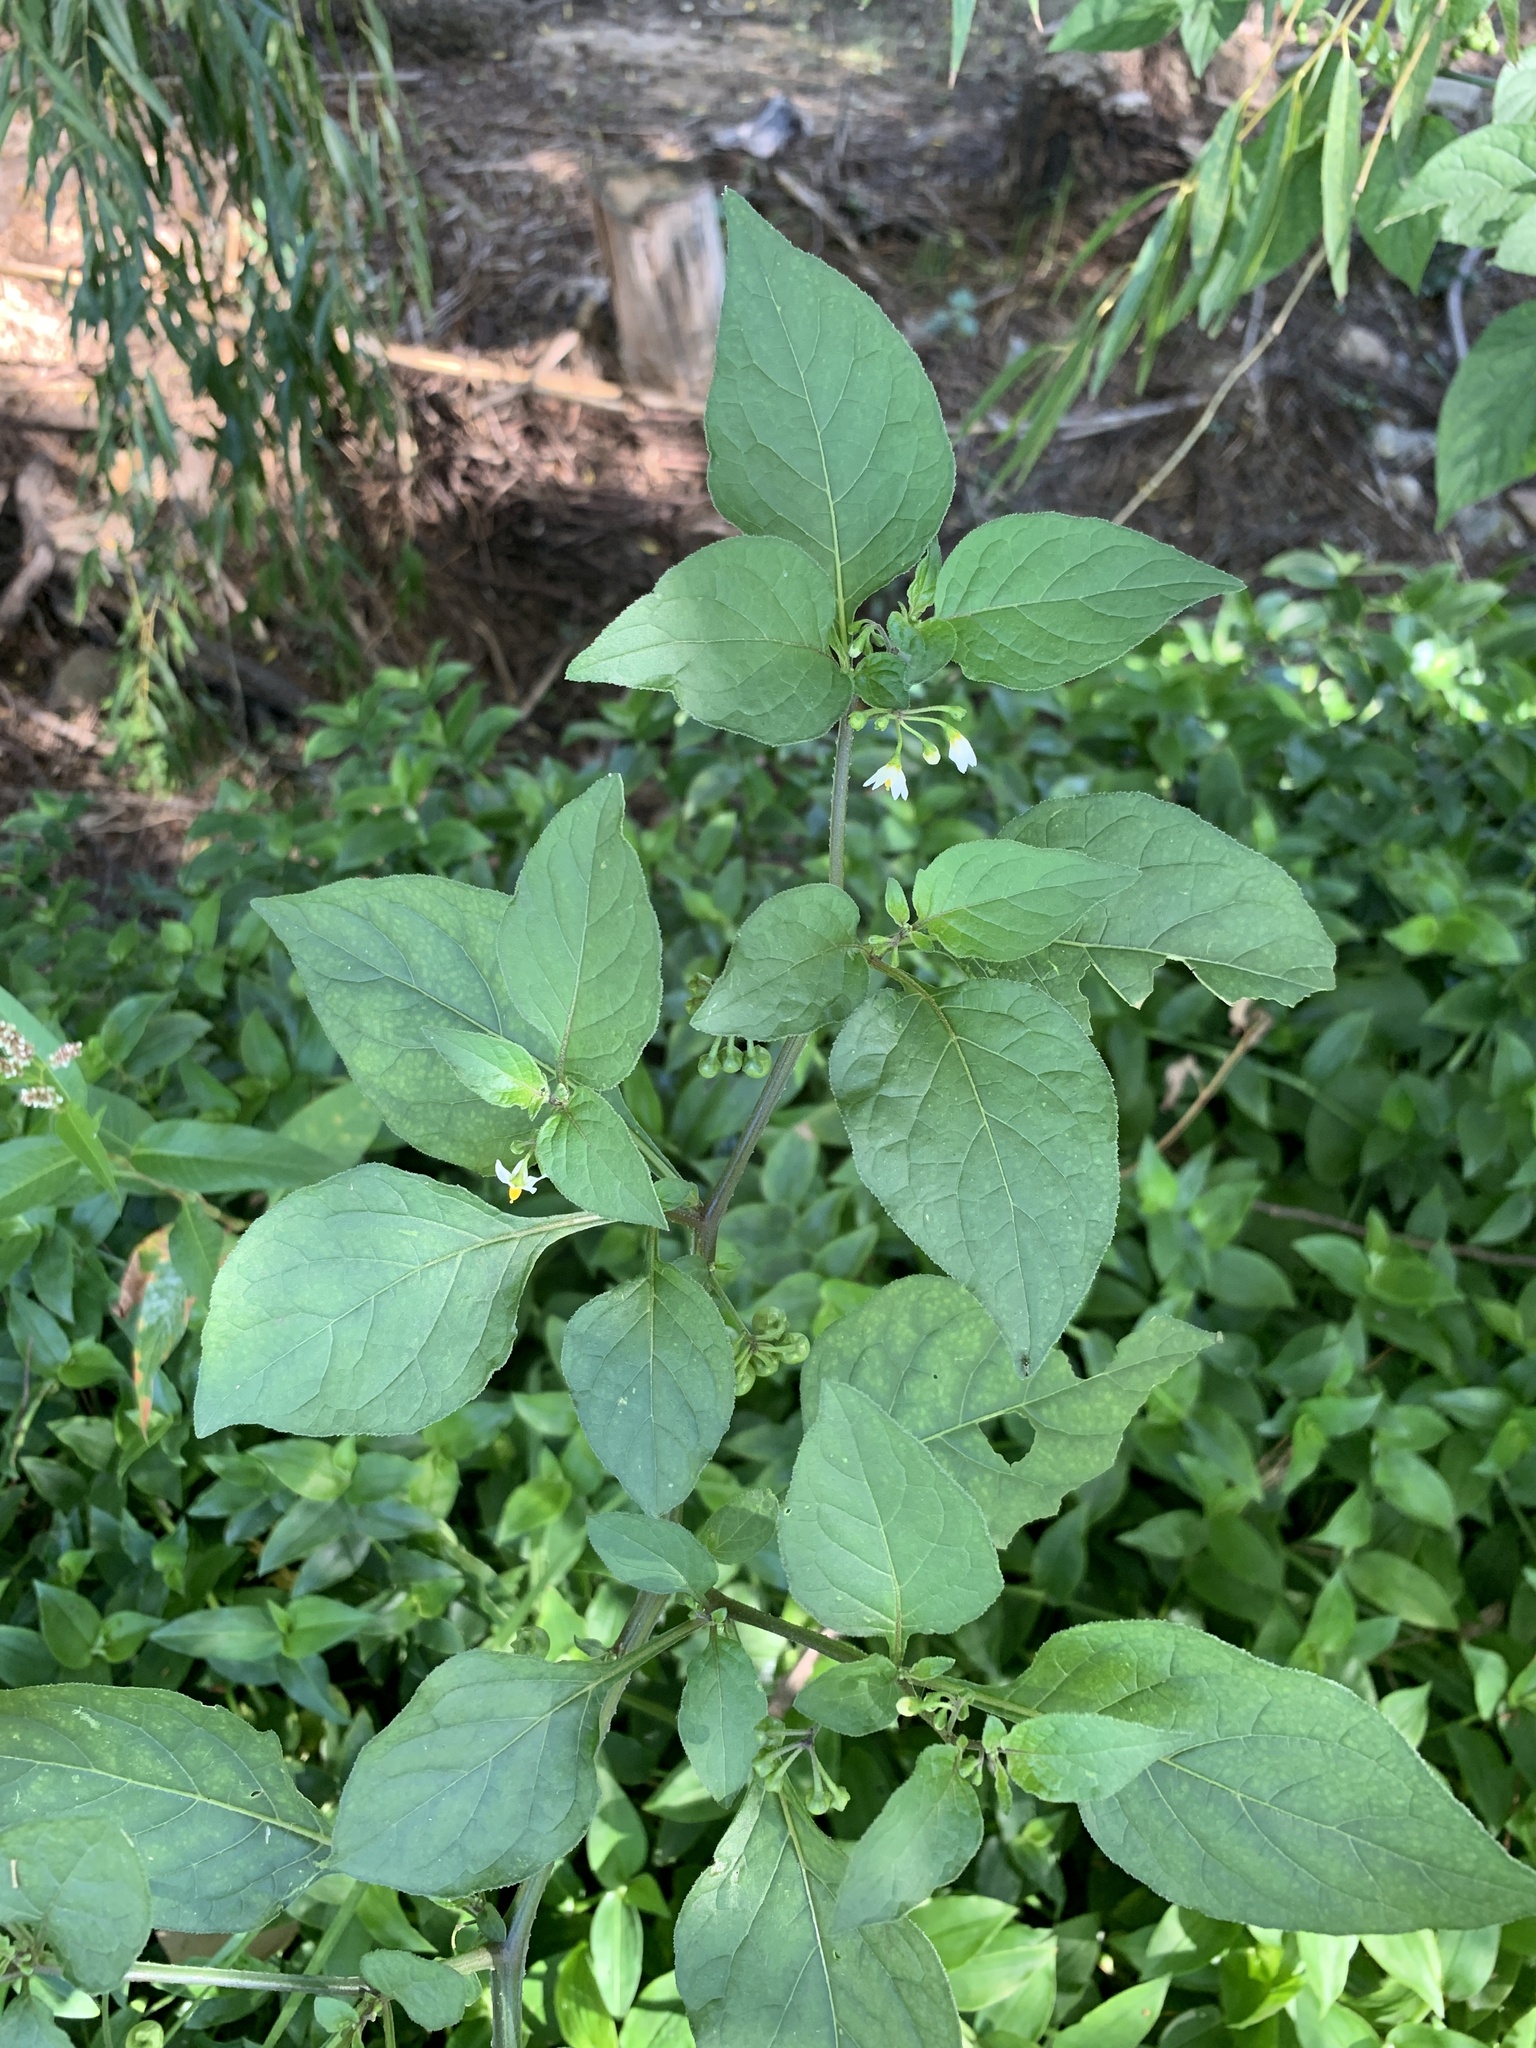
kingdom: Plantae
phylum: Tracheophyta
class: Magnoliopsida
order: Solanales
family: Solanaceae
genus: Solanum
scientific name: Solanum nigrum
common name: Black nightshade
